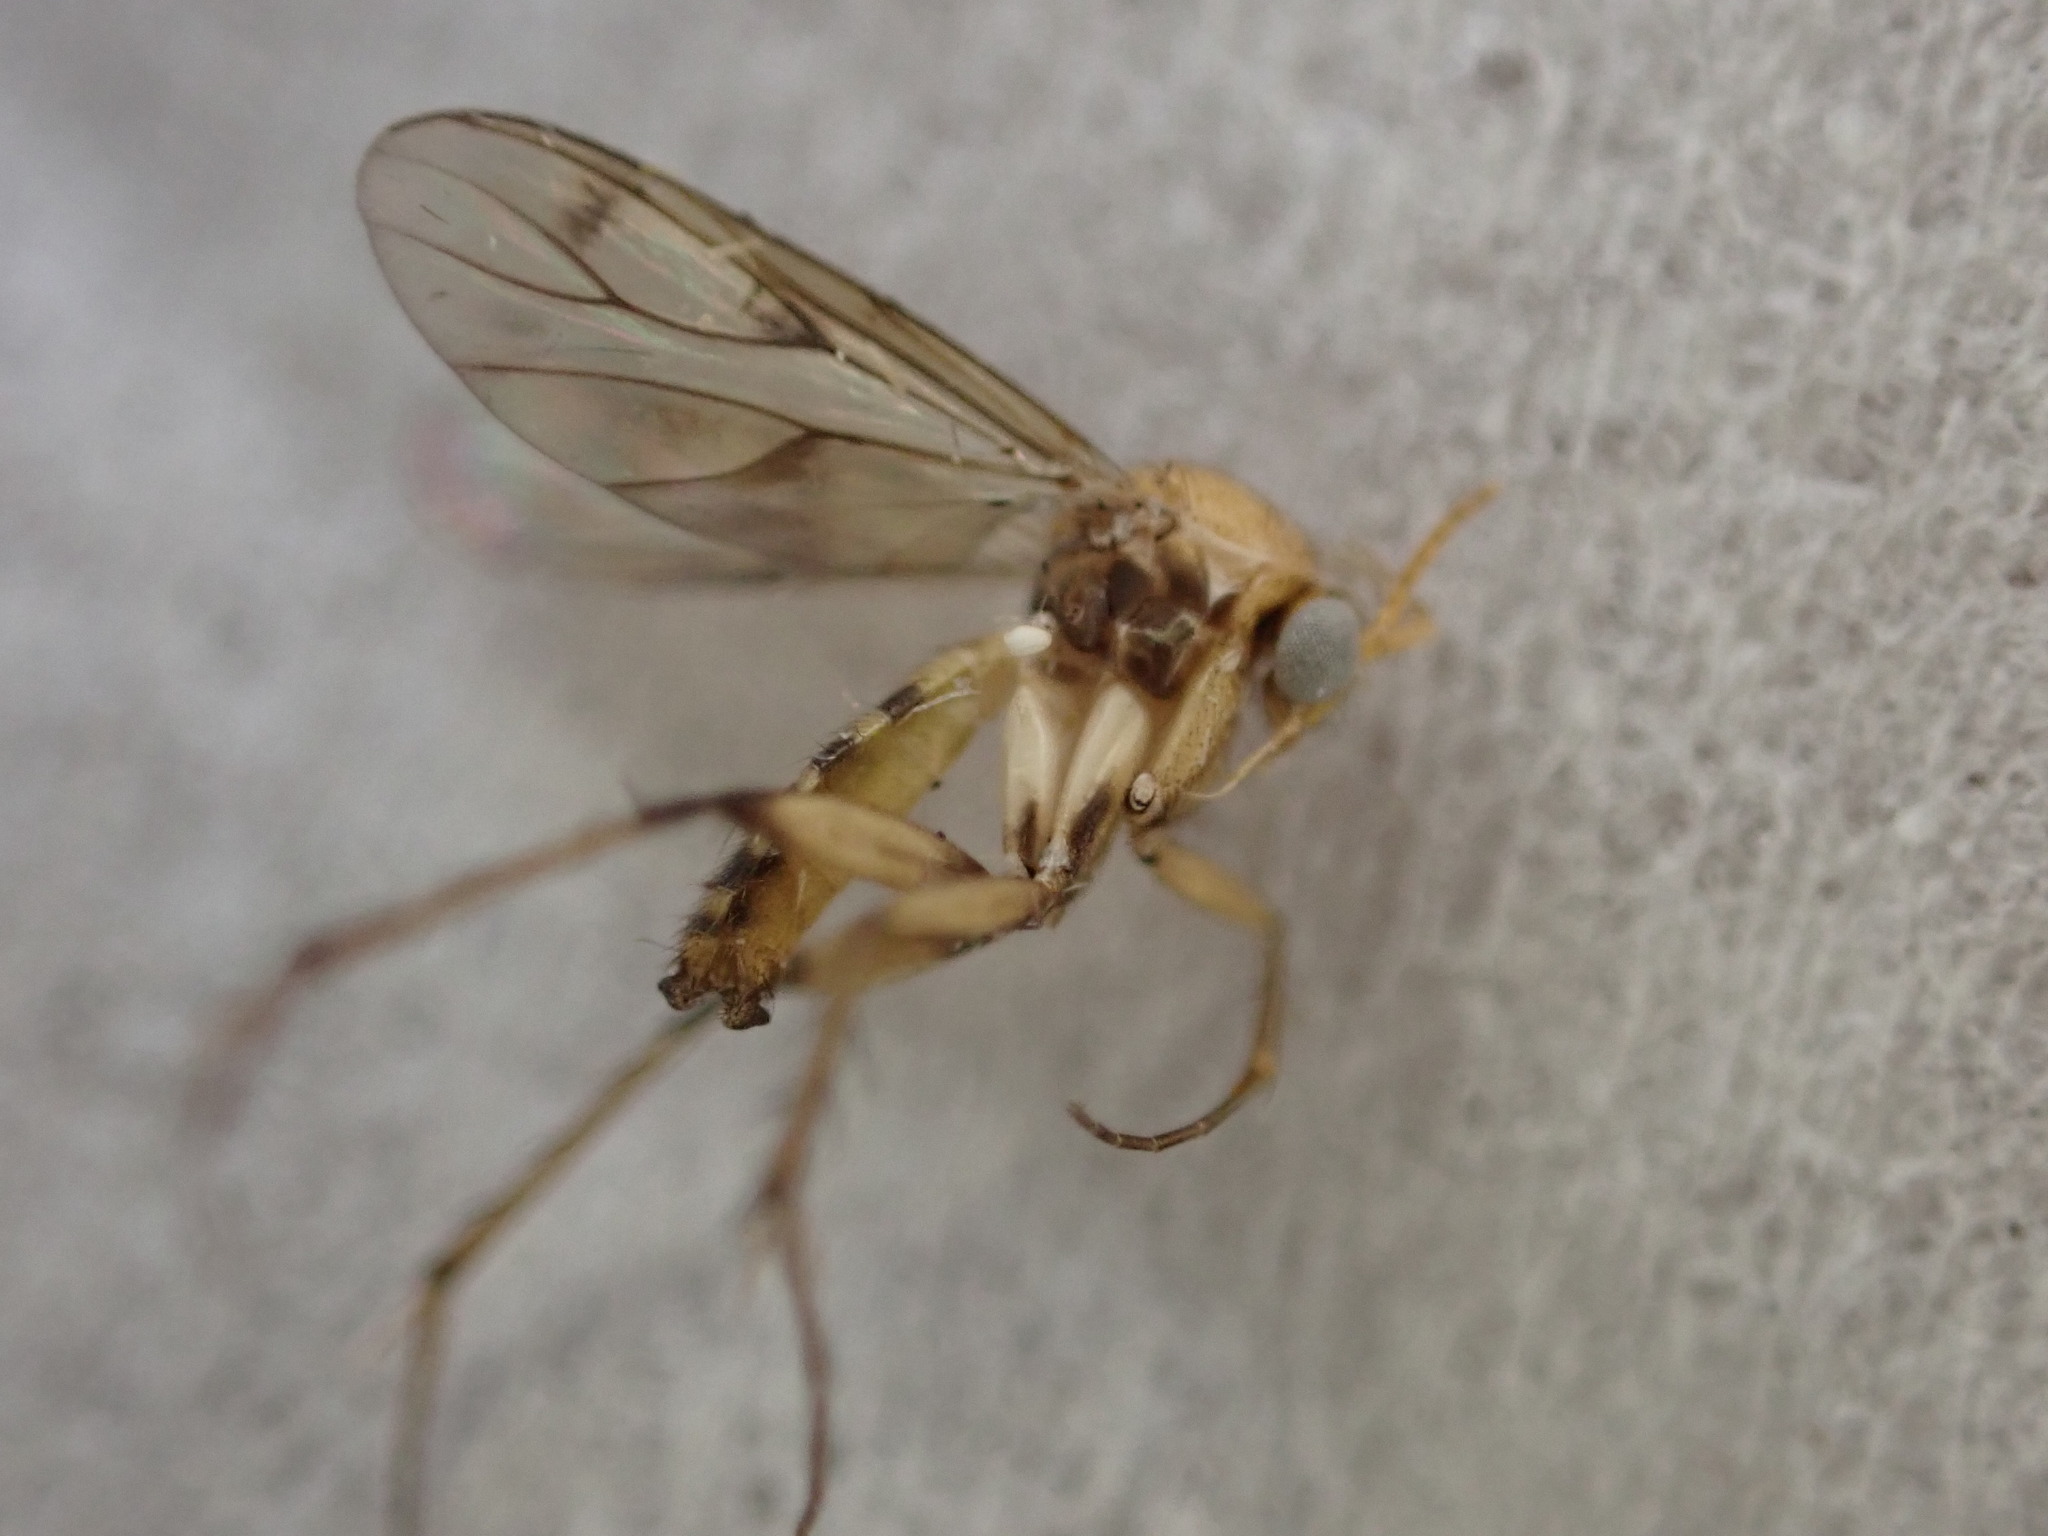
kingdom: Animalia
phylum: Arthropoda
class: Insecta
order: Diptera
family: Mycetophilidae
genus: Anomalomyia
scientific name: Anomalomyia guttata
